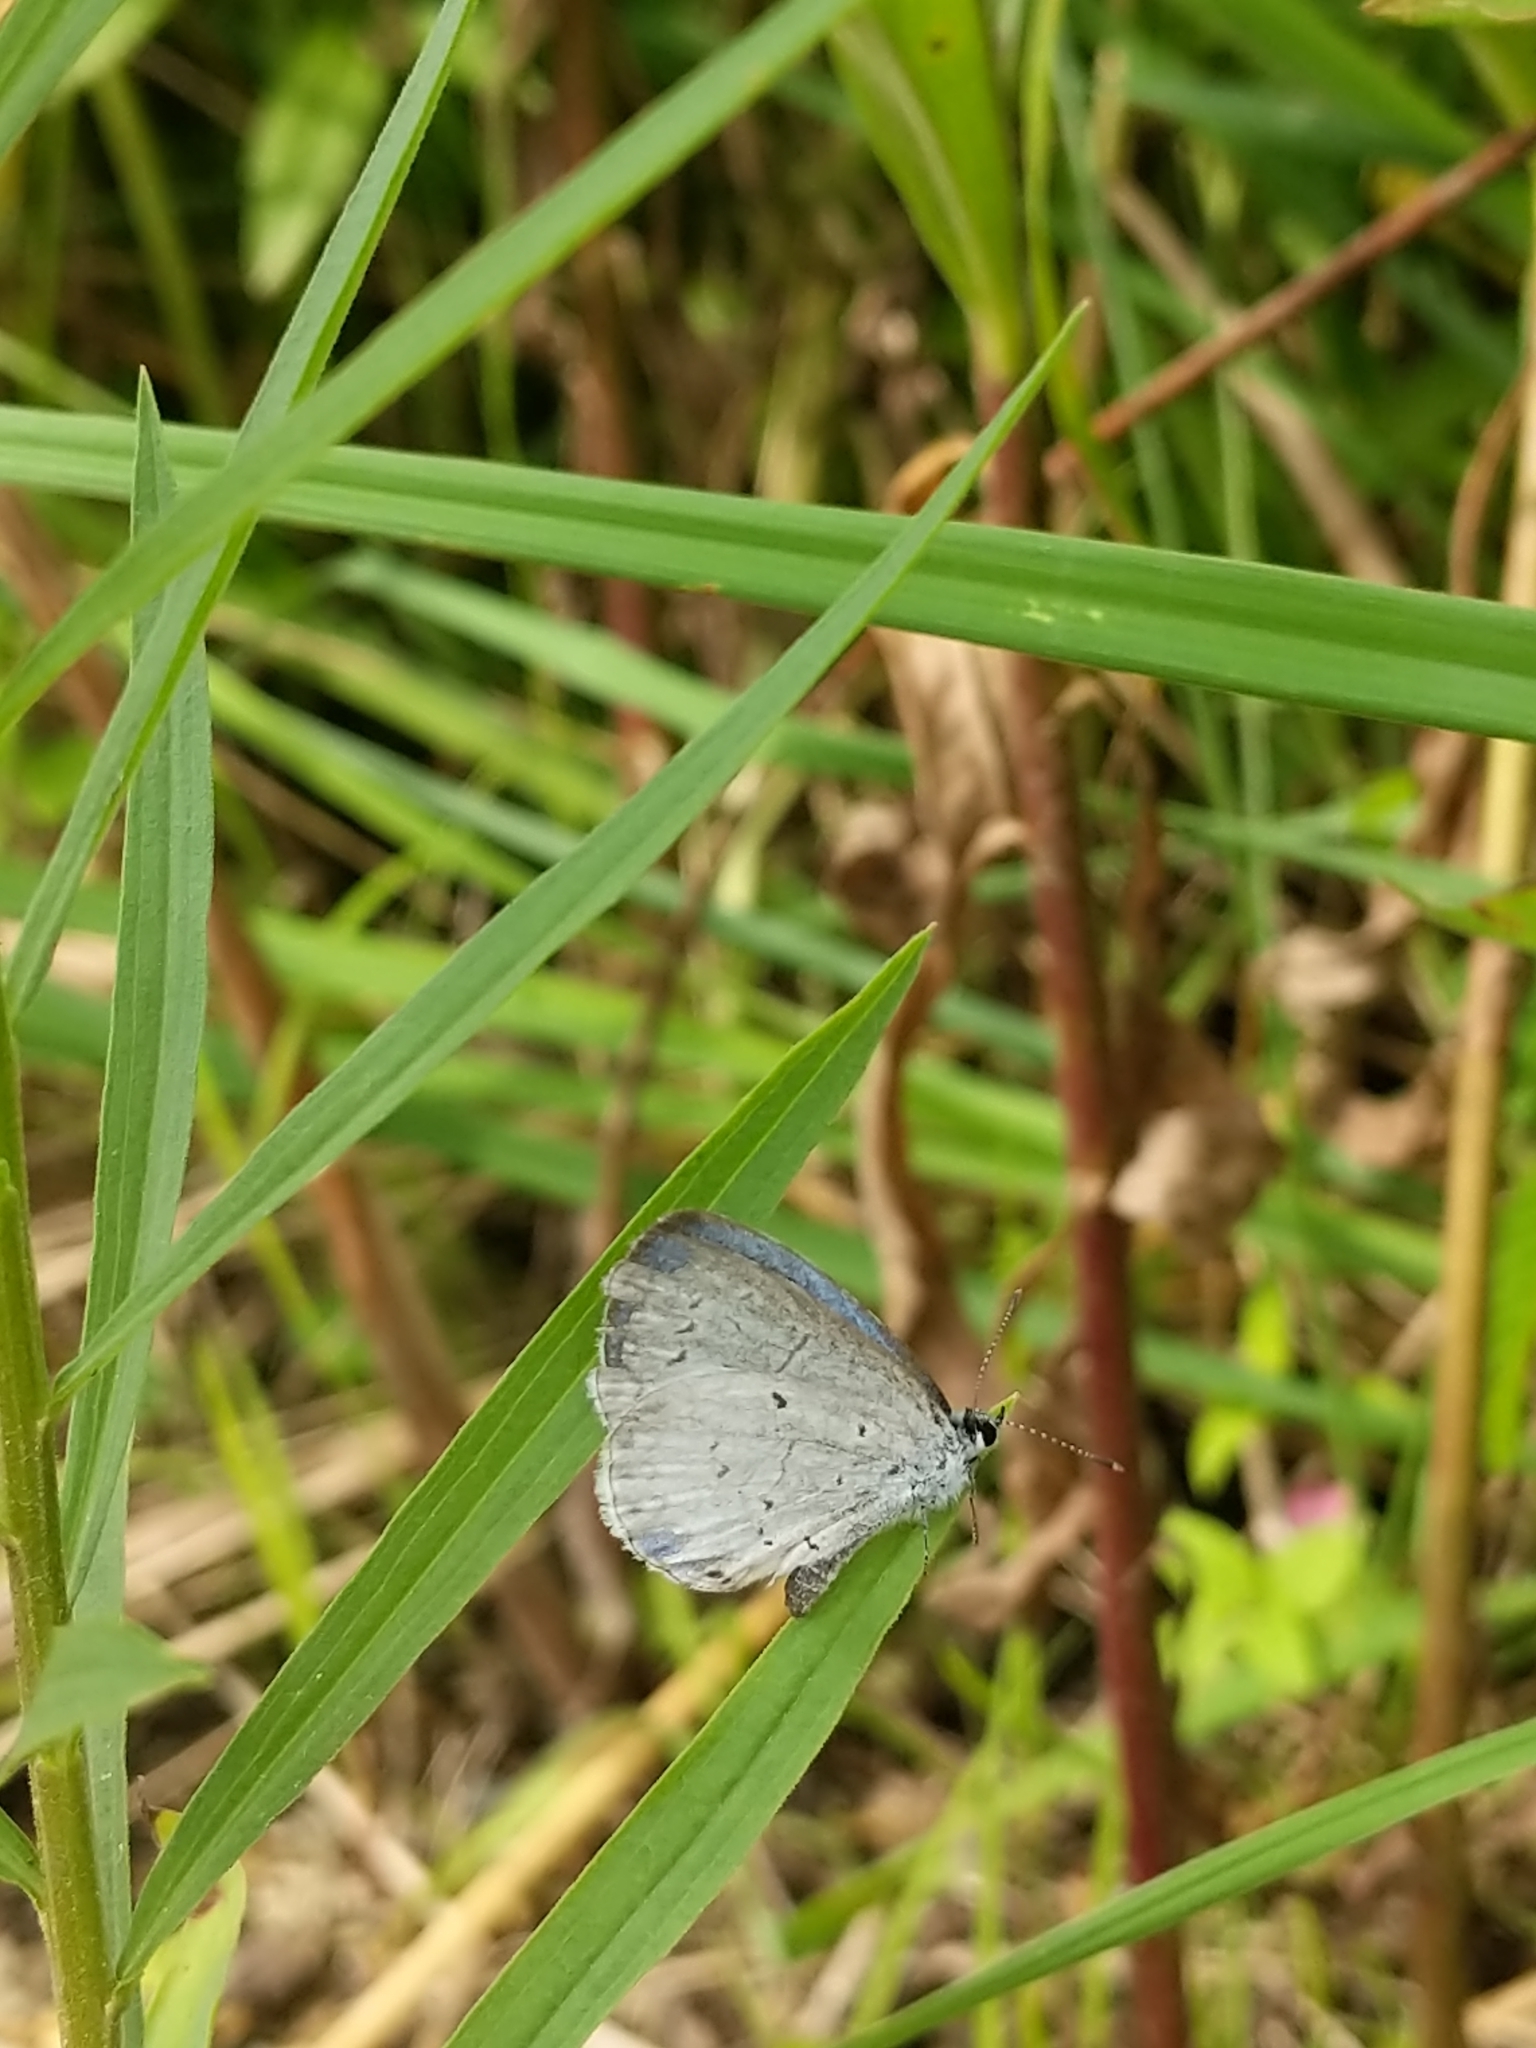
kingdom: Animalia
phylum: Arthropoda
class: Insecta
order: Lepidoptera
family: Lycaenidae
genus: Cyaniris
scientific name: Cyaniris neglecta
